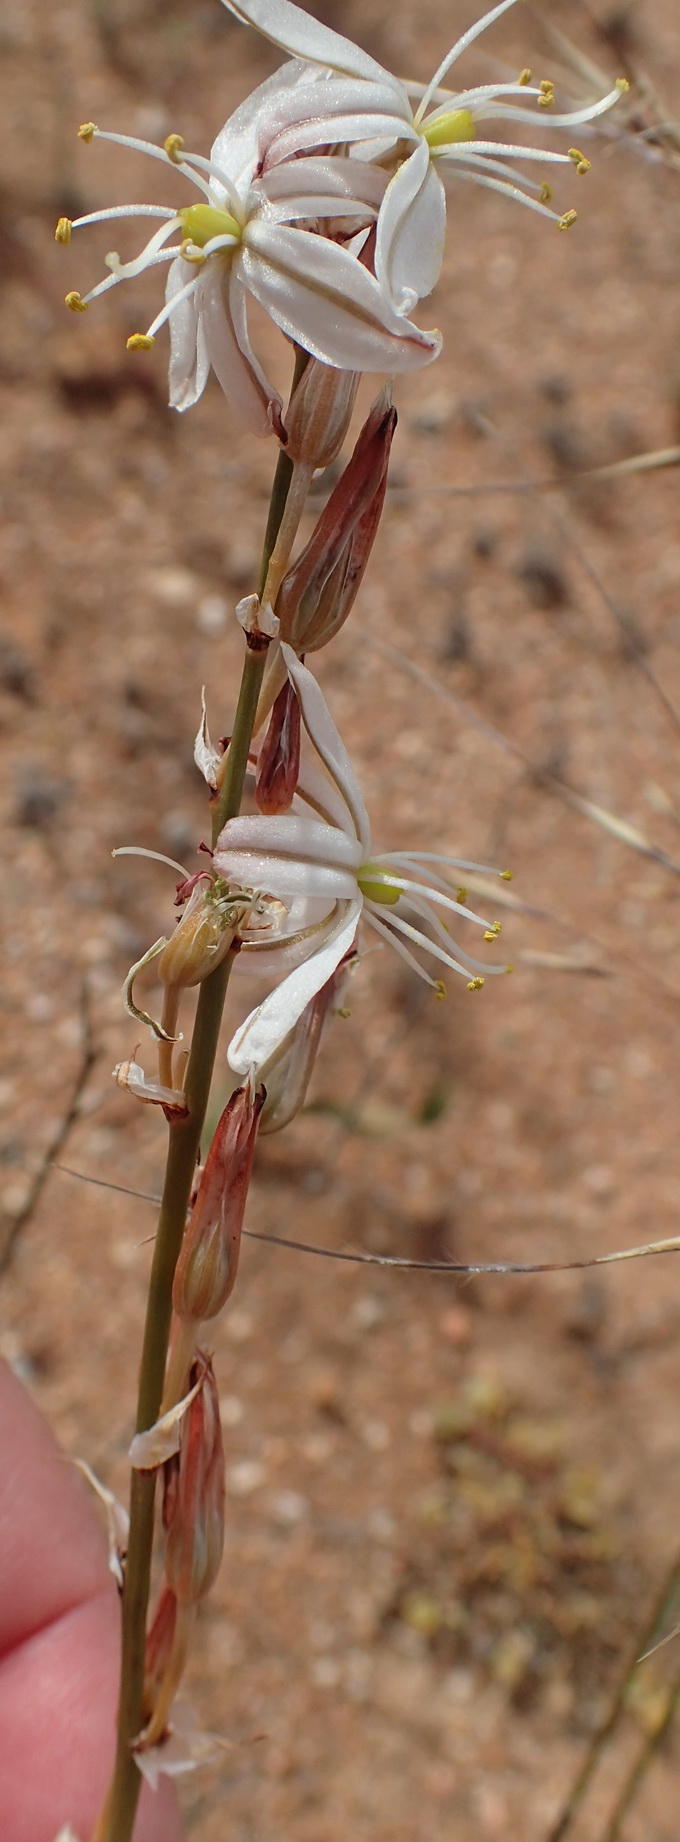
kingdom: Plantae
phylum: Tracheophyta
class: Liliopsida
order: Asparagales
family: Asparagaceae
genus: Chlorophytum
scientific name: Chlorophytum crassinerve
